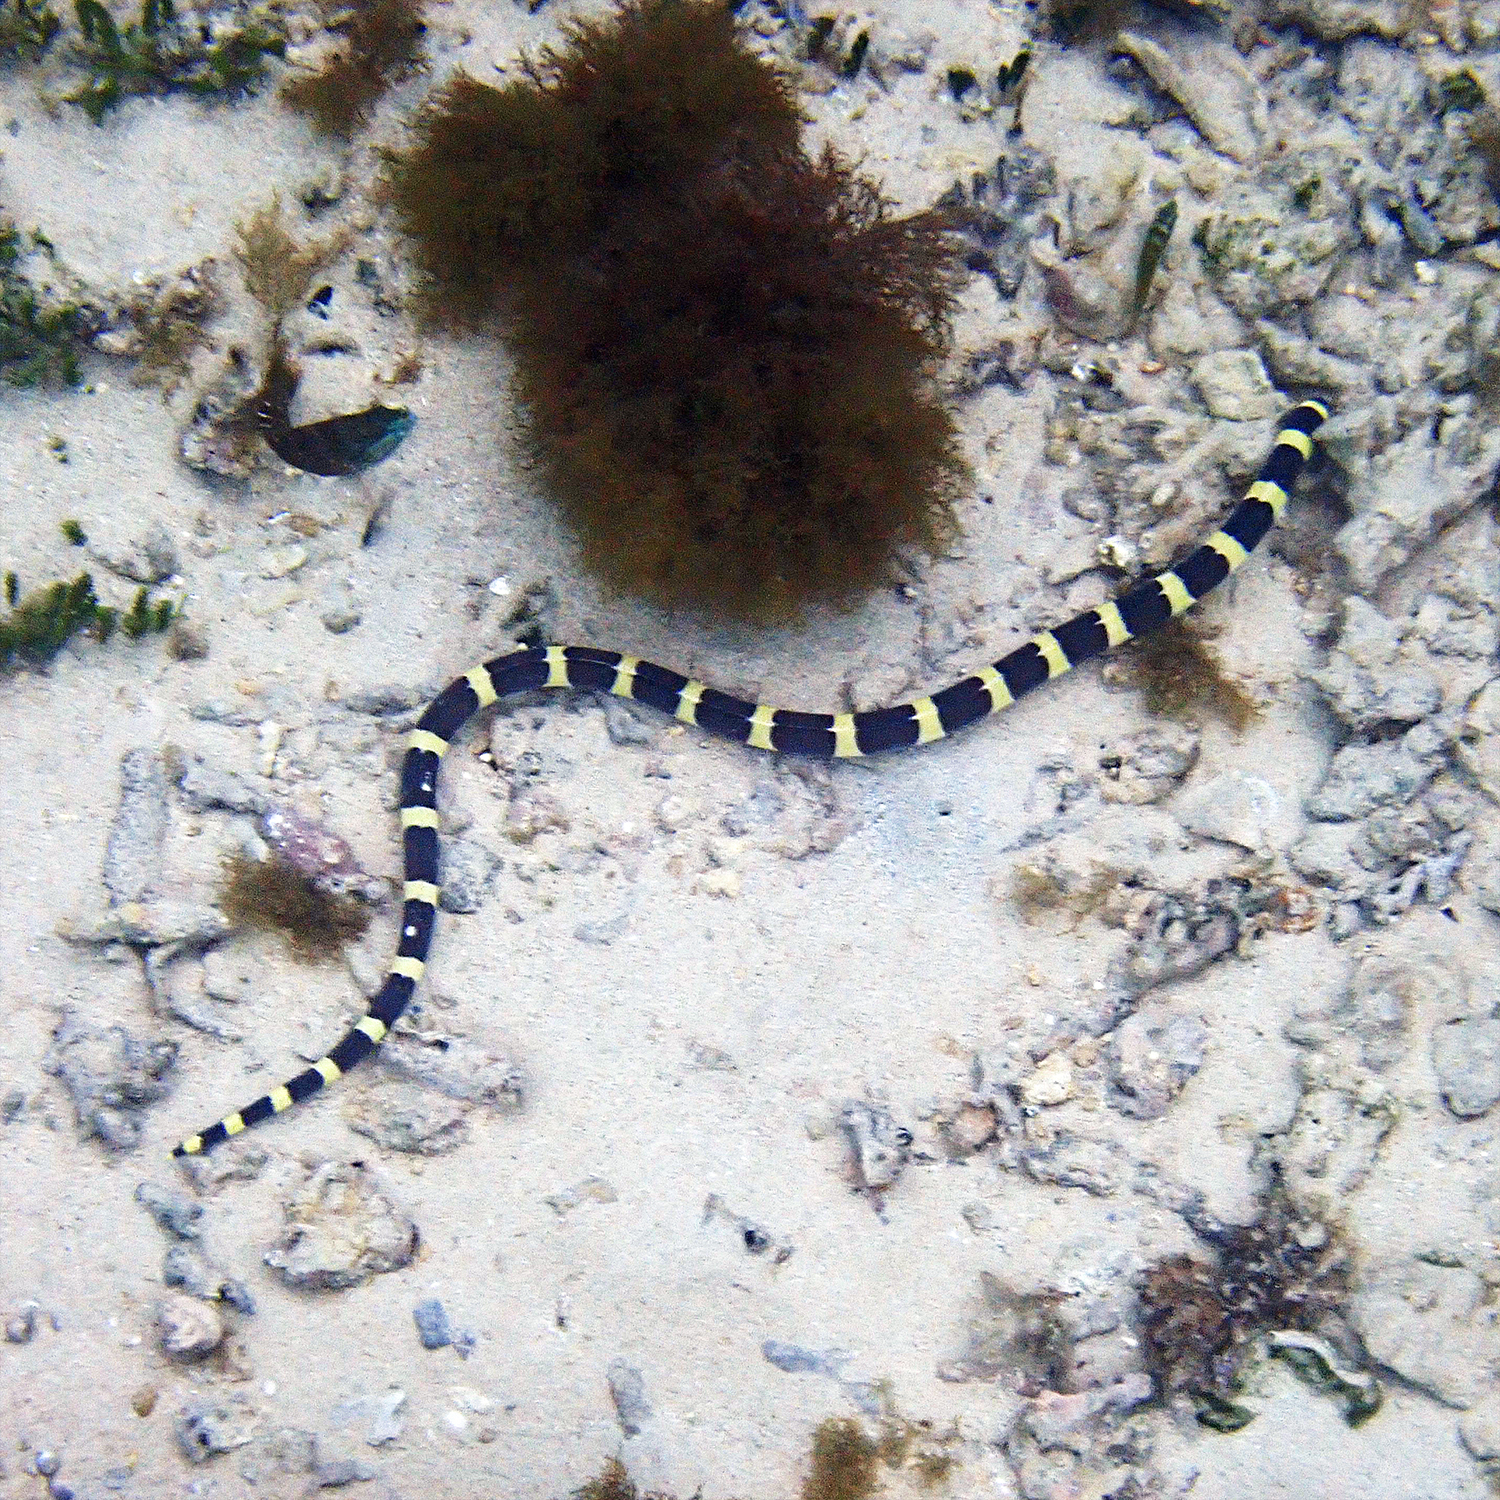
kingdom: Animalia
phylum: Chordata
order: Anguilliformes
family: Ophichthidae
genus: Leiuranus
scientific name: Leiuranus semicinctus
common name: Saddled snake eel
